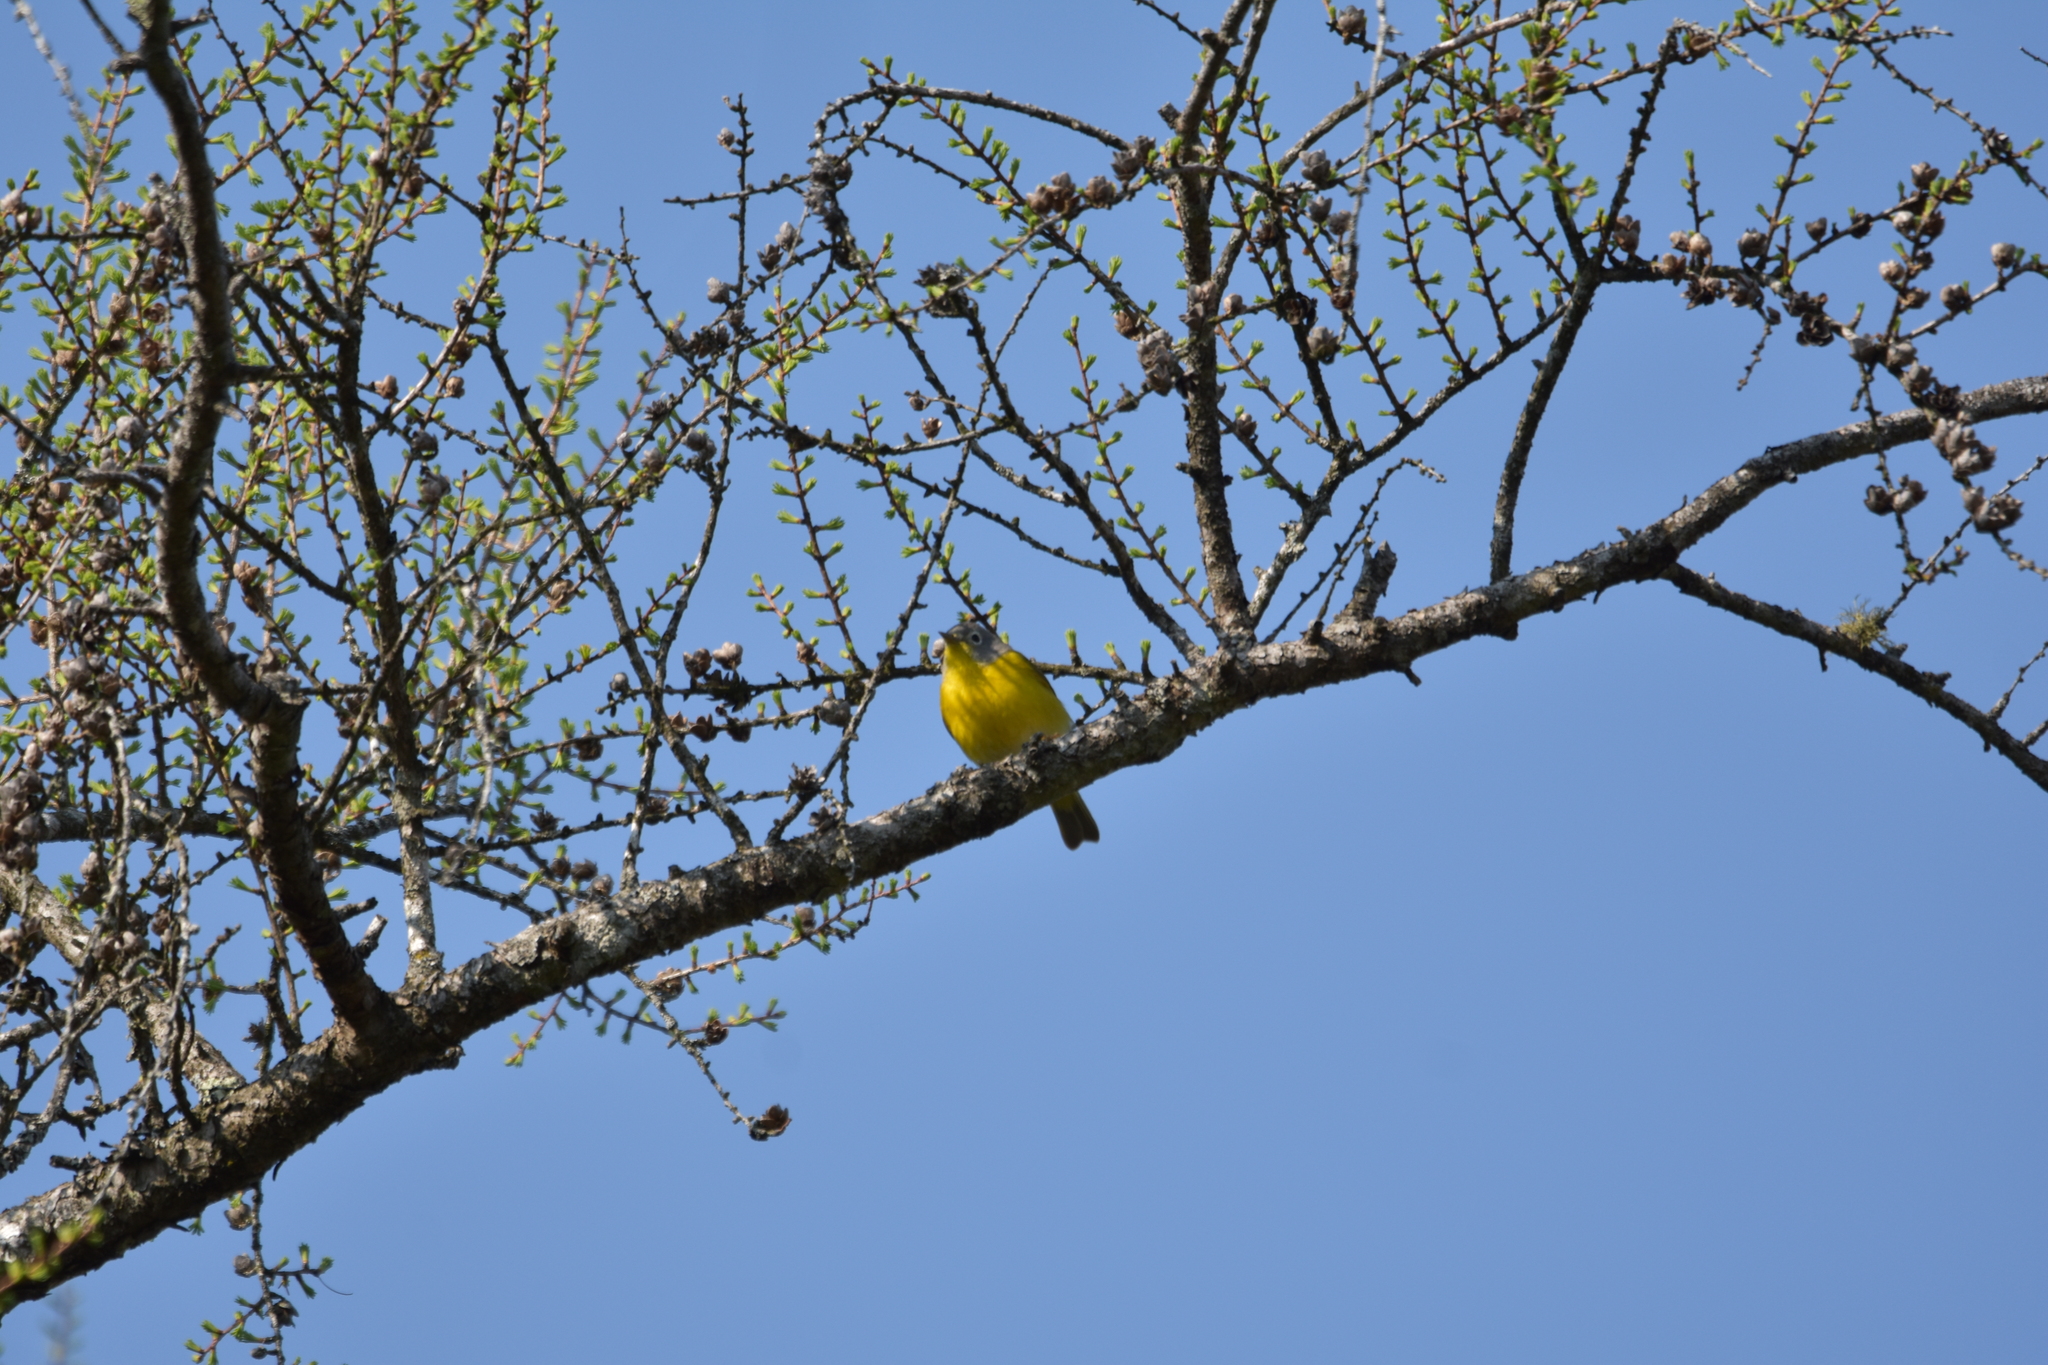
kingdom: Animalia
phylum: Chordata
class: Aves
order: Passeriformes
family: Parulidae
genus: Leiothlypis
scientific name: Leiothlypis ruficapilla
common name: Nashville warbler
